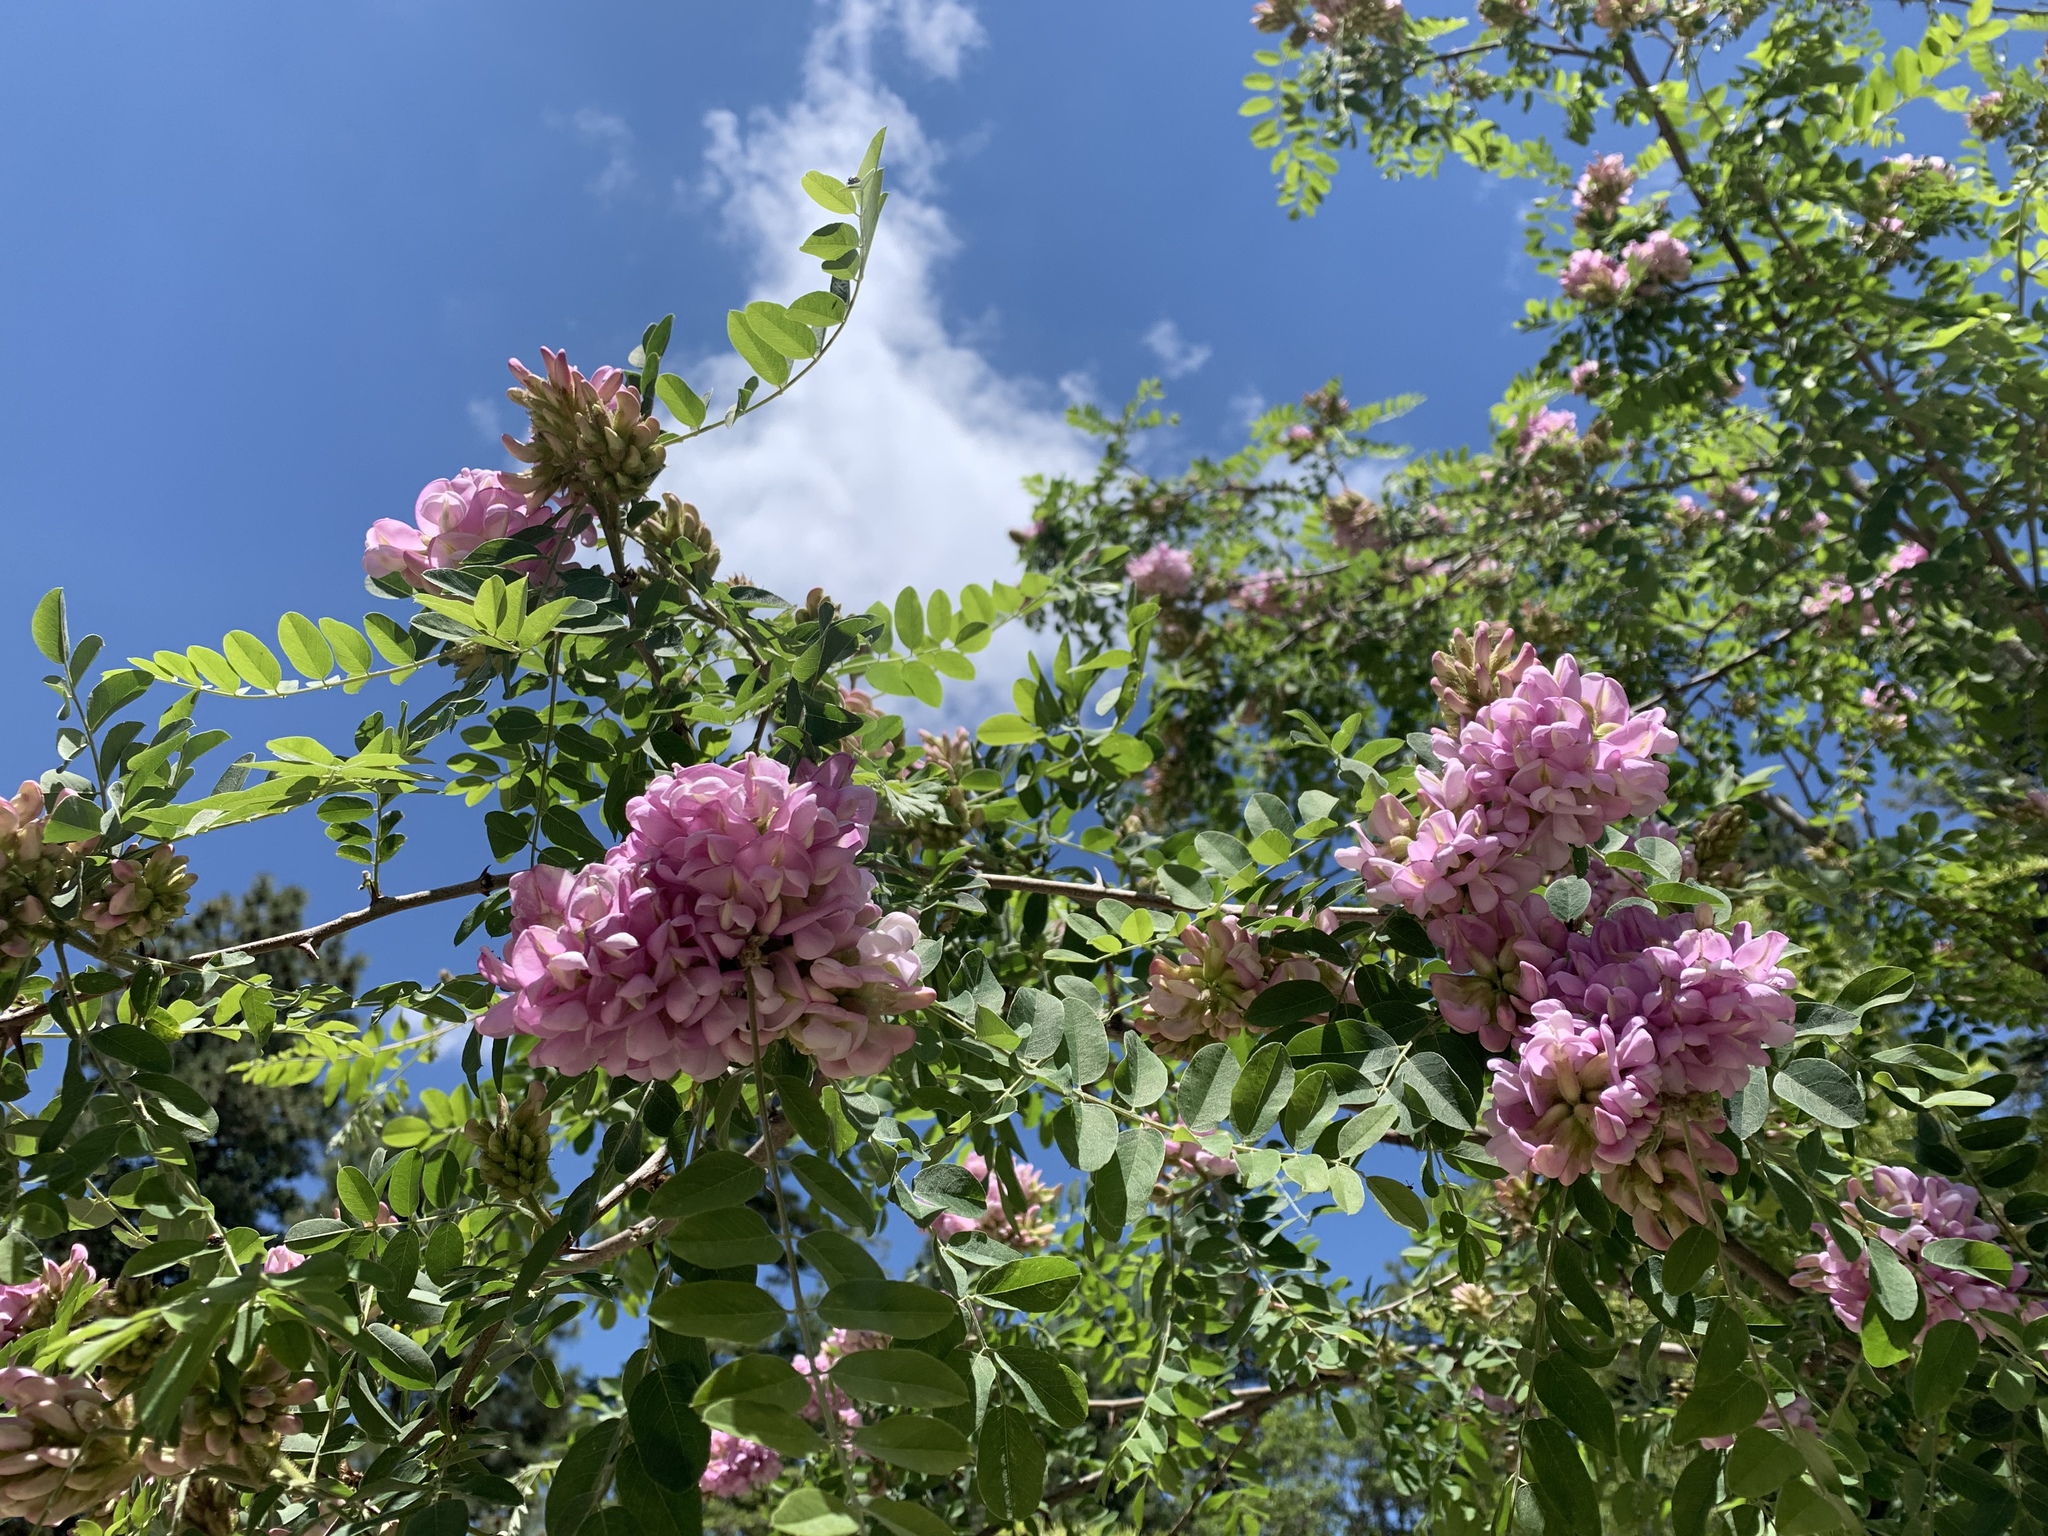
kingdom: Plantae
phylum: Tracheophyta
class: Magnoliopsida
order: Fabales
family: Fabaceae
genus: Robinia
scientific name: Robinia neomexicana
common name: New mexico locust
